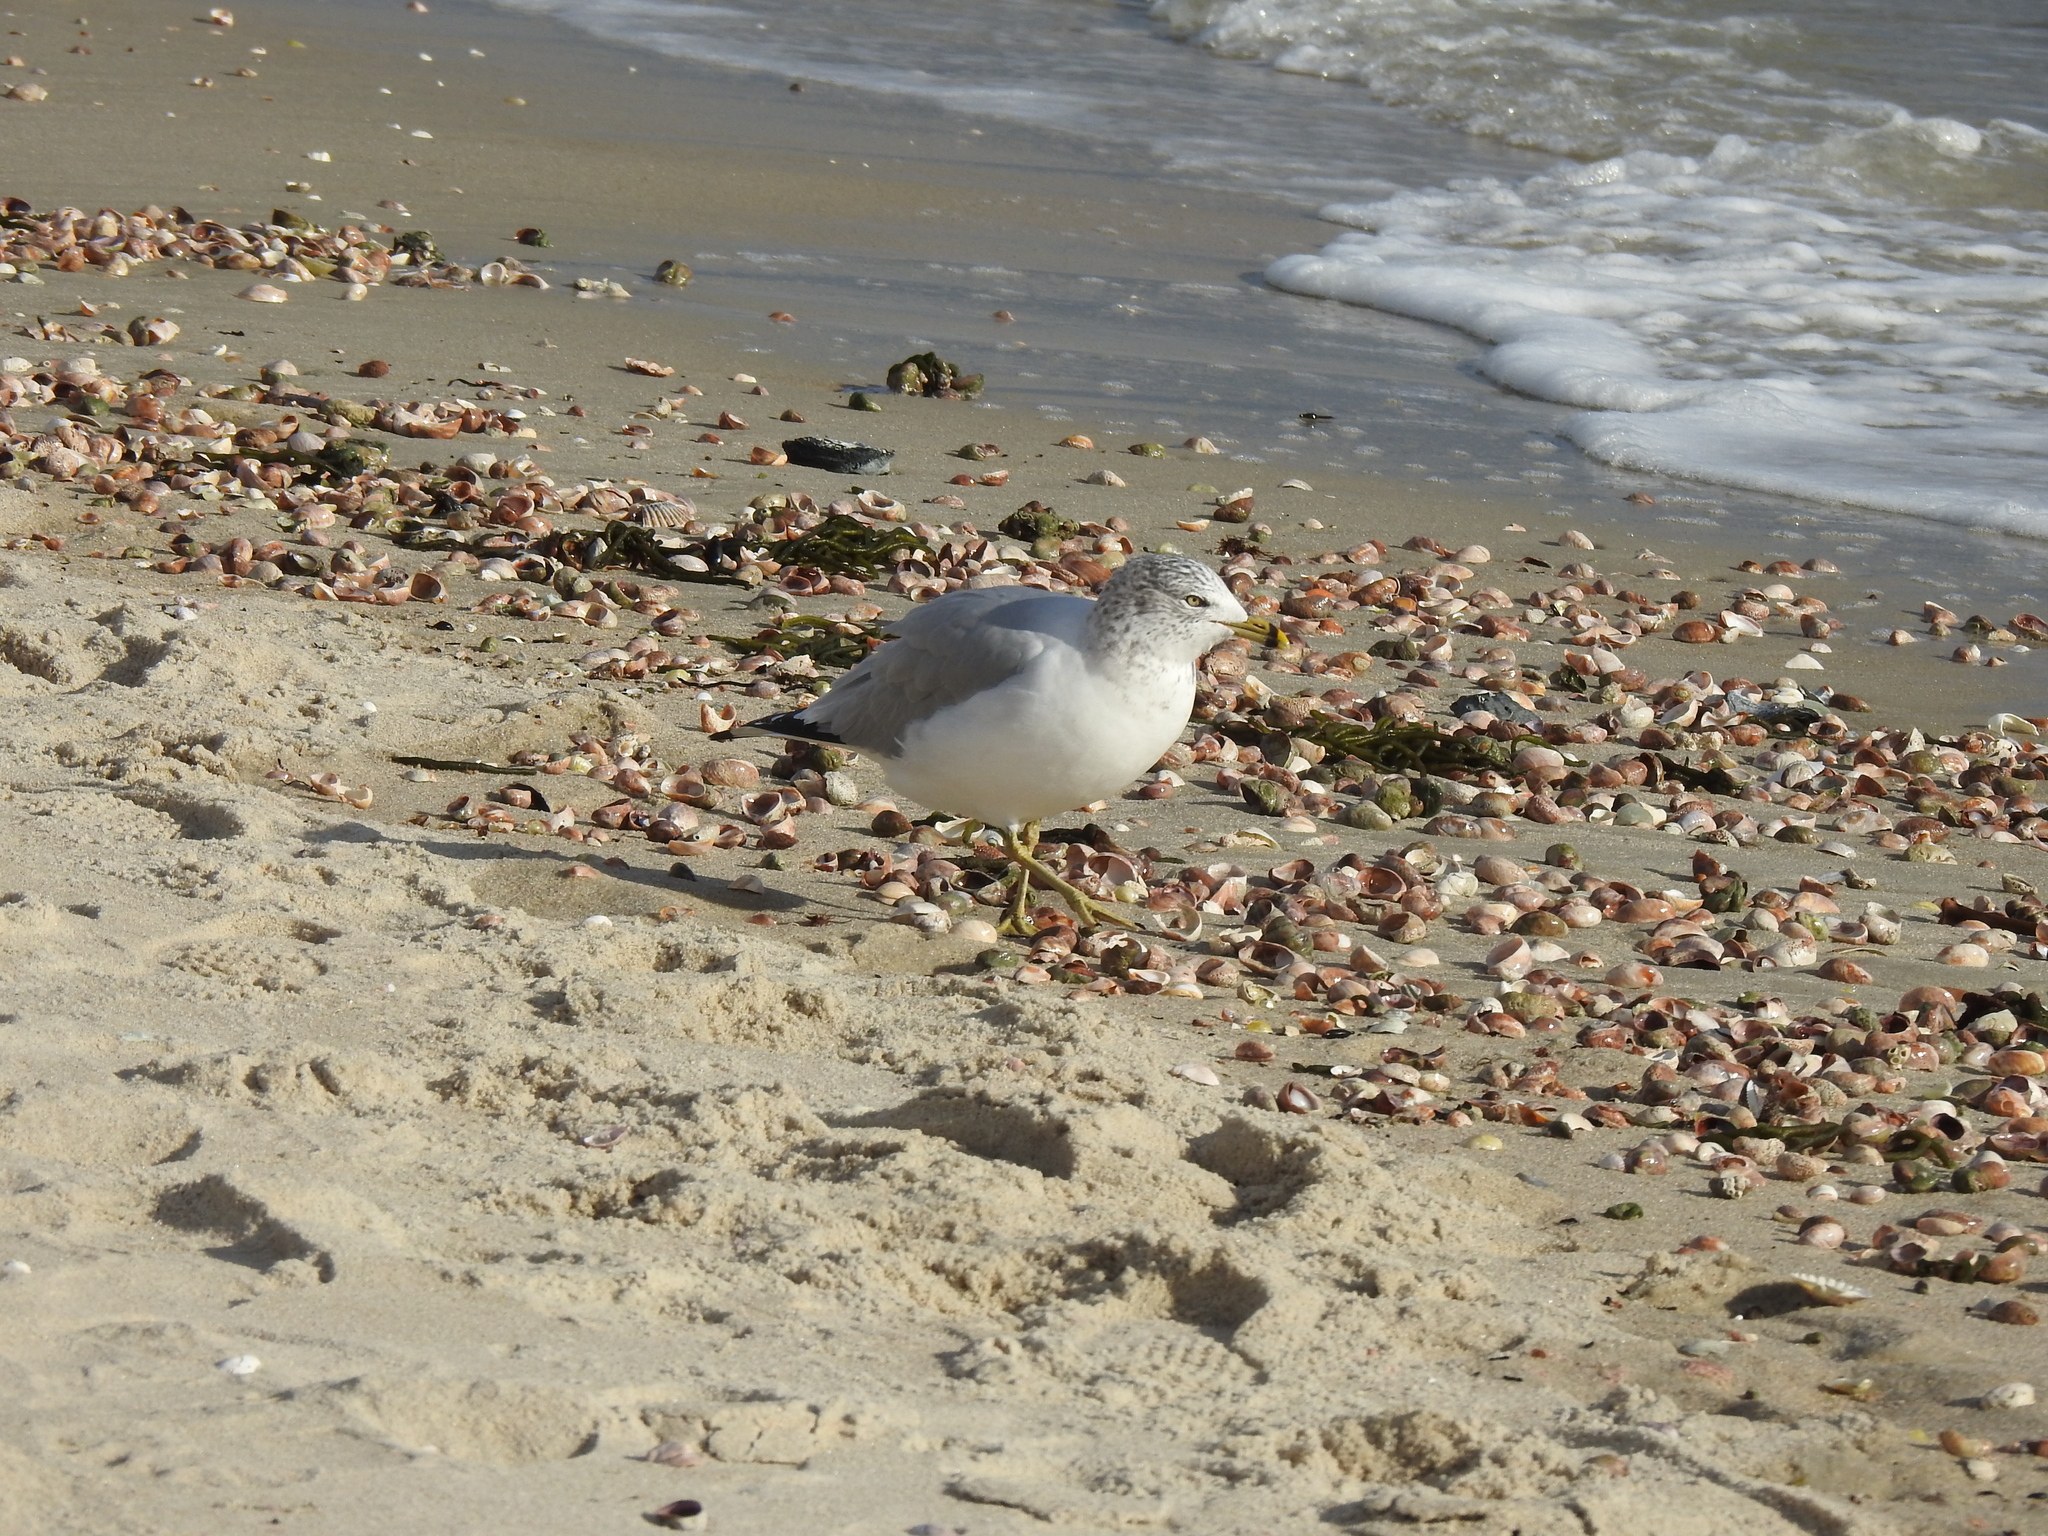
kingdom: Animalia
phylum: Chordata
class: Aves
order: Charadriiformes
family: Laridae
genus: Larus
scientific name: Larus delawarensis
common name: Ring-billed gull
